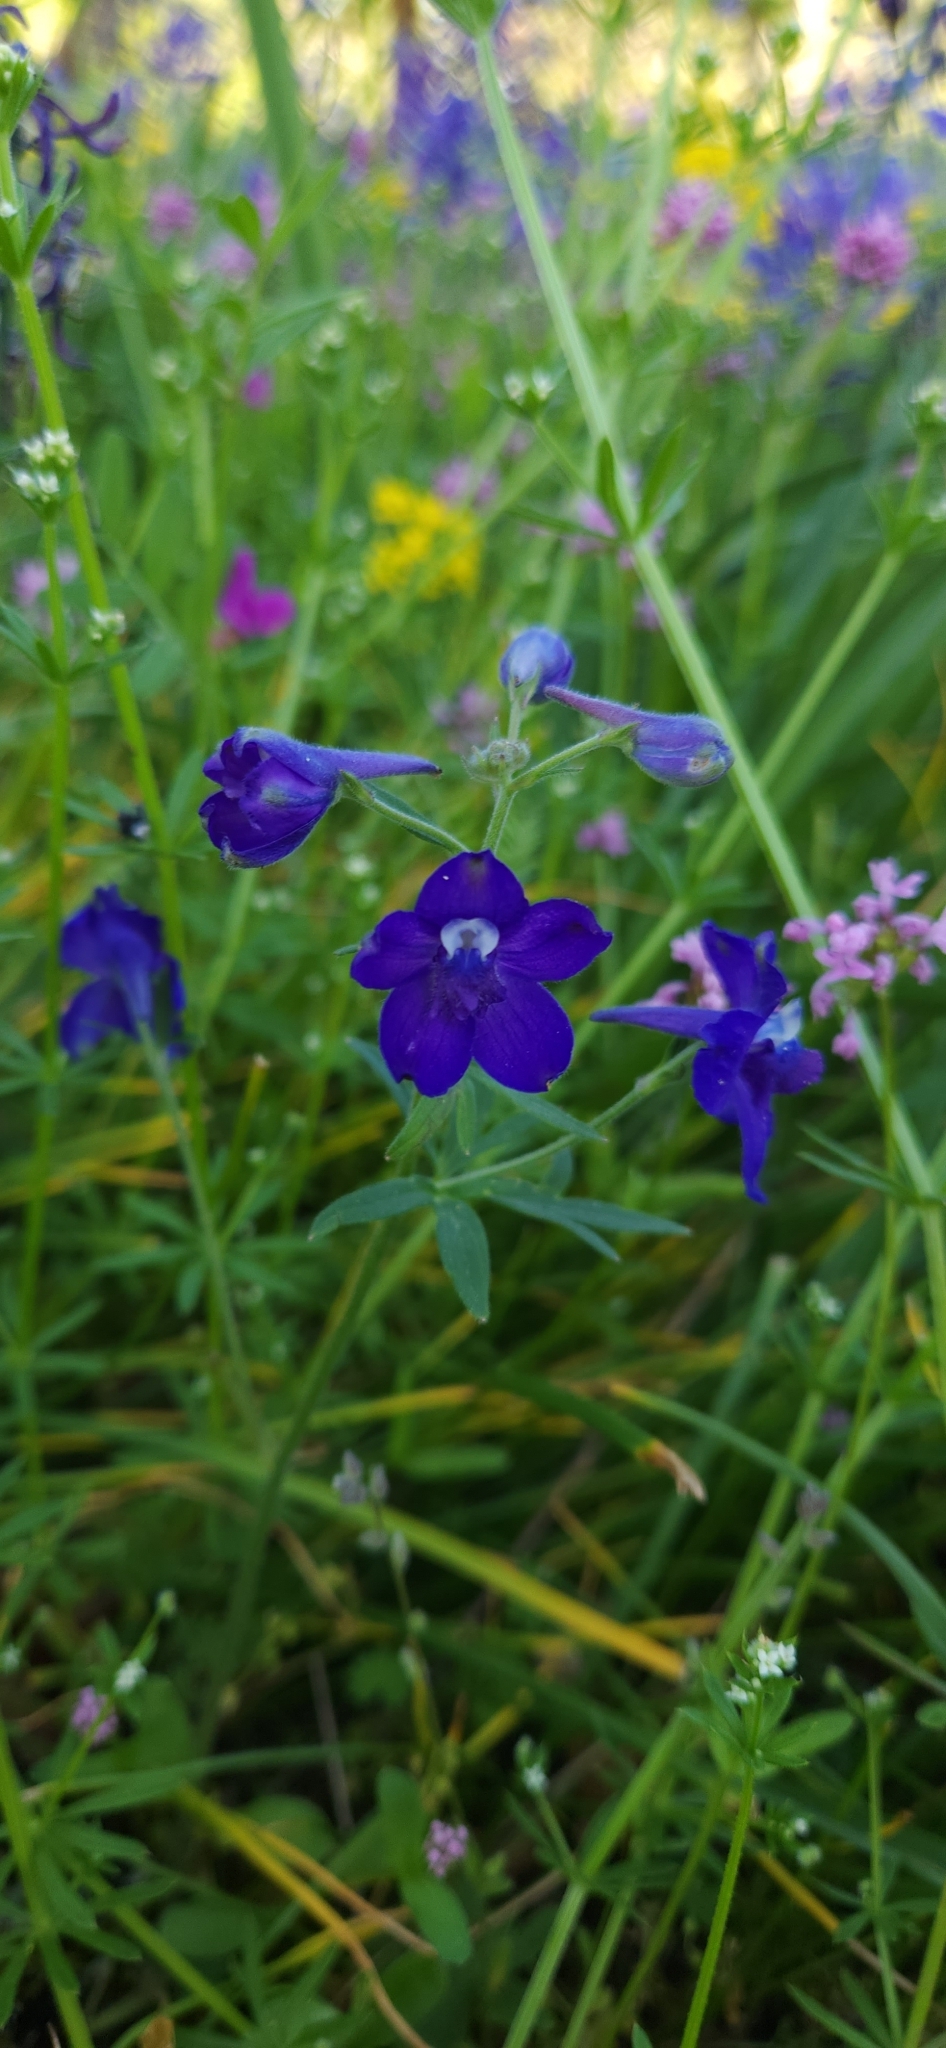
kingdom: Plantae
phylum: Tracheophyta
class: Magnoliopsida
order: Ranunculales
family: Ranunculaceae
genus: Delphinium
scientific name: Delphinium menziesii
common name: Menzies's larkspur
